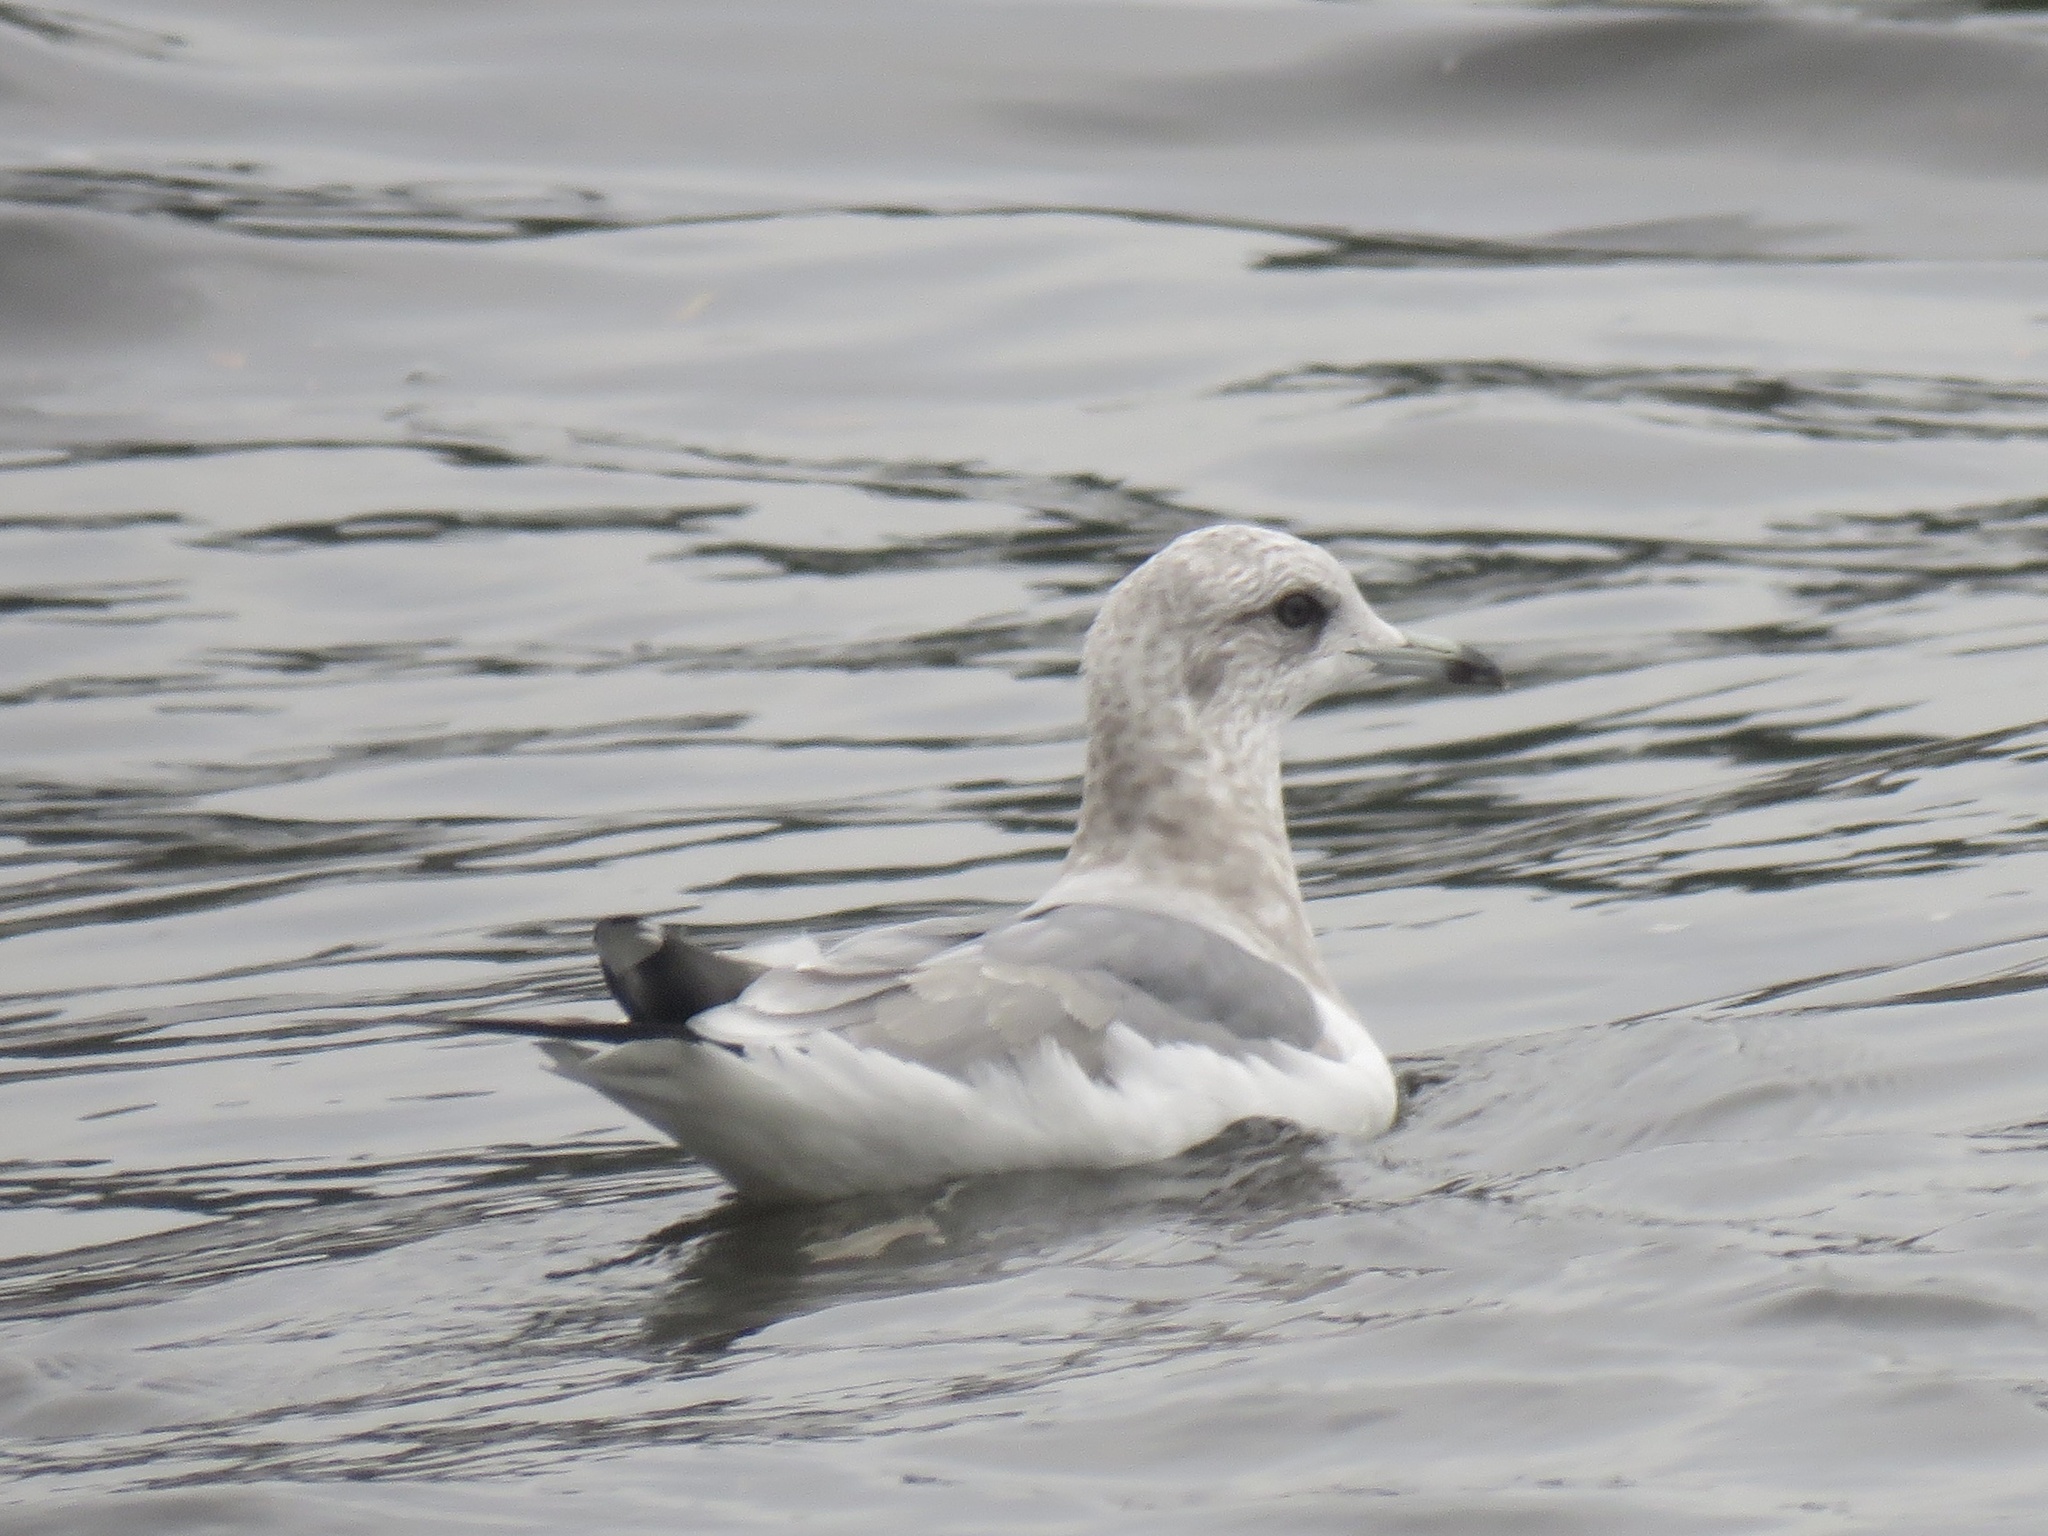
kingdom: Animalia
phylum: Chordata
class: Aves
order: Charadriiformes
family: Laridae
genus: Larus
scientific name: Larus brachyrhynchus
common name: Short-billed gull
